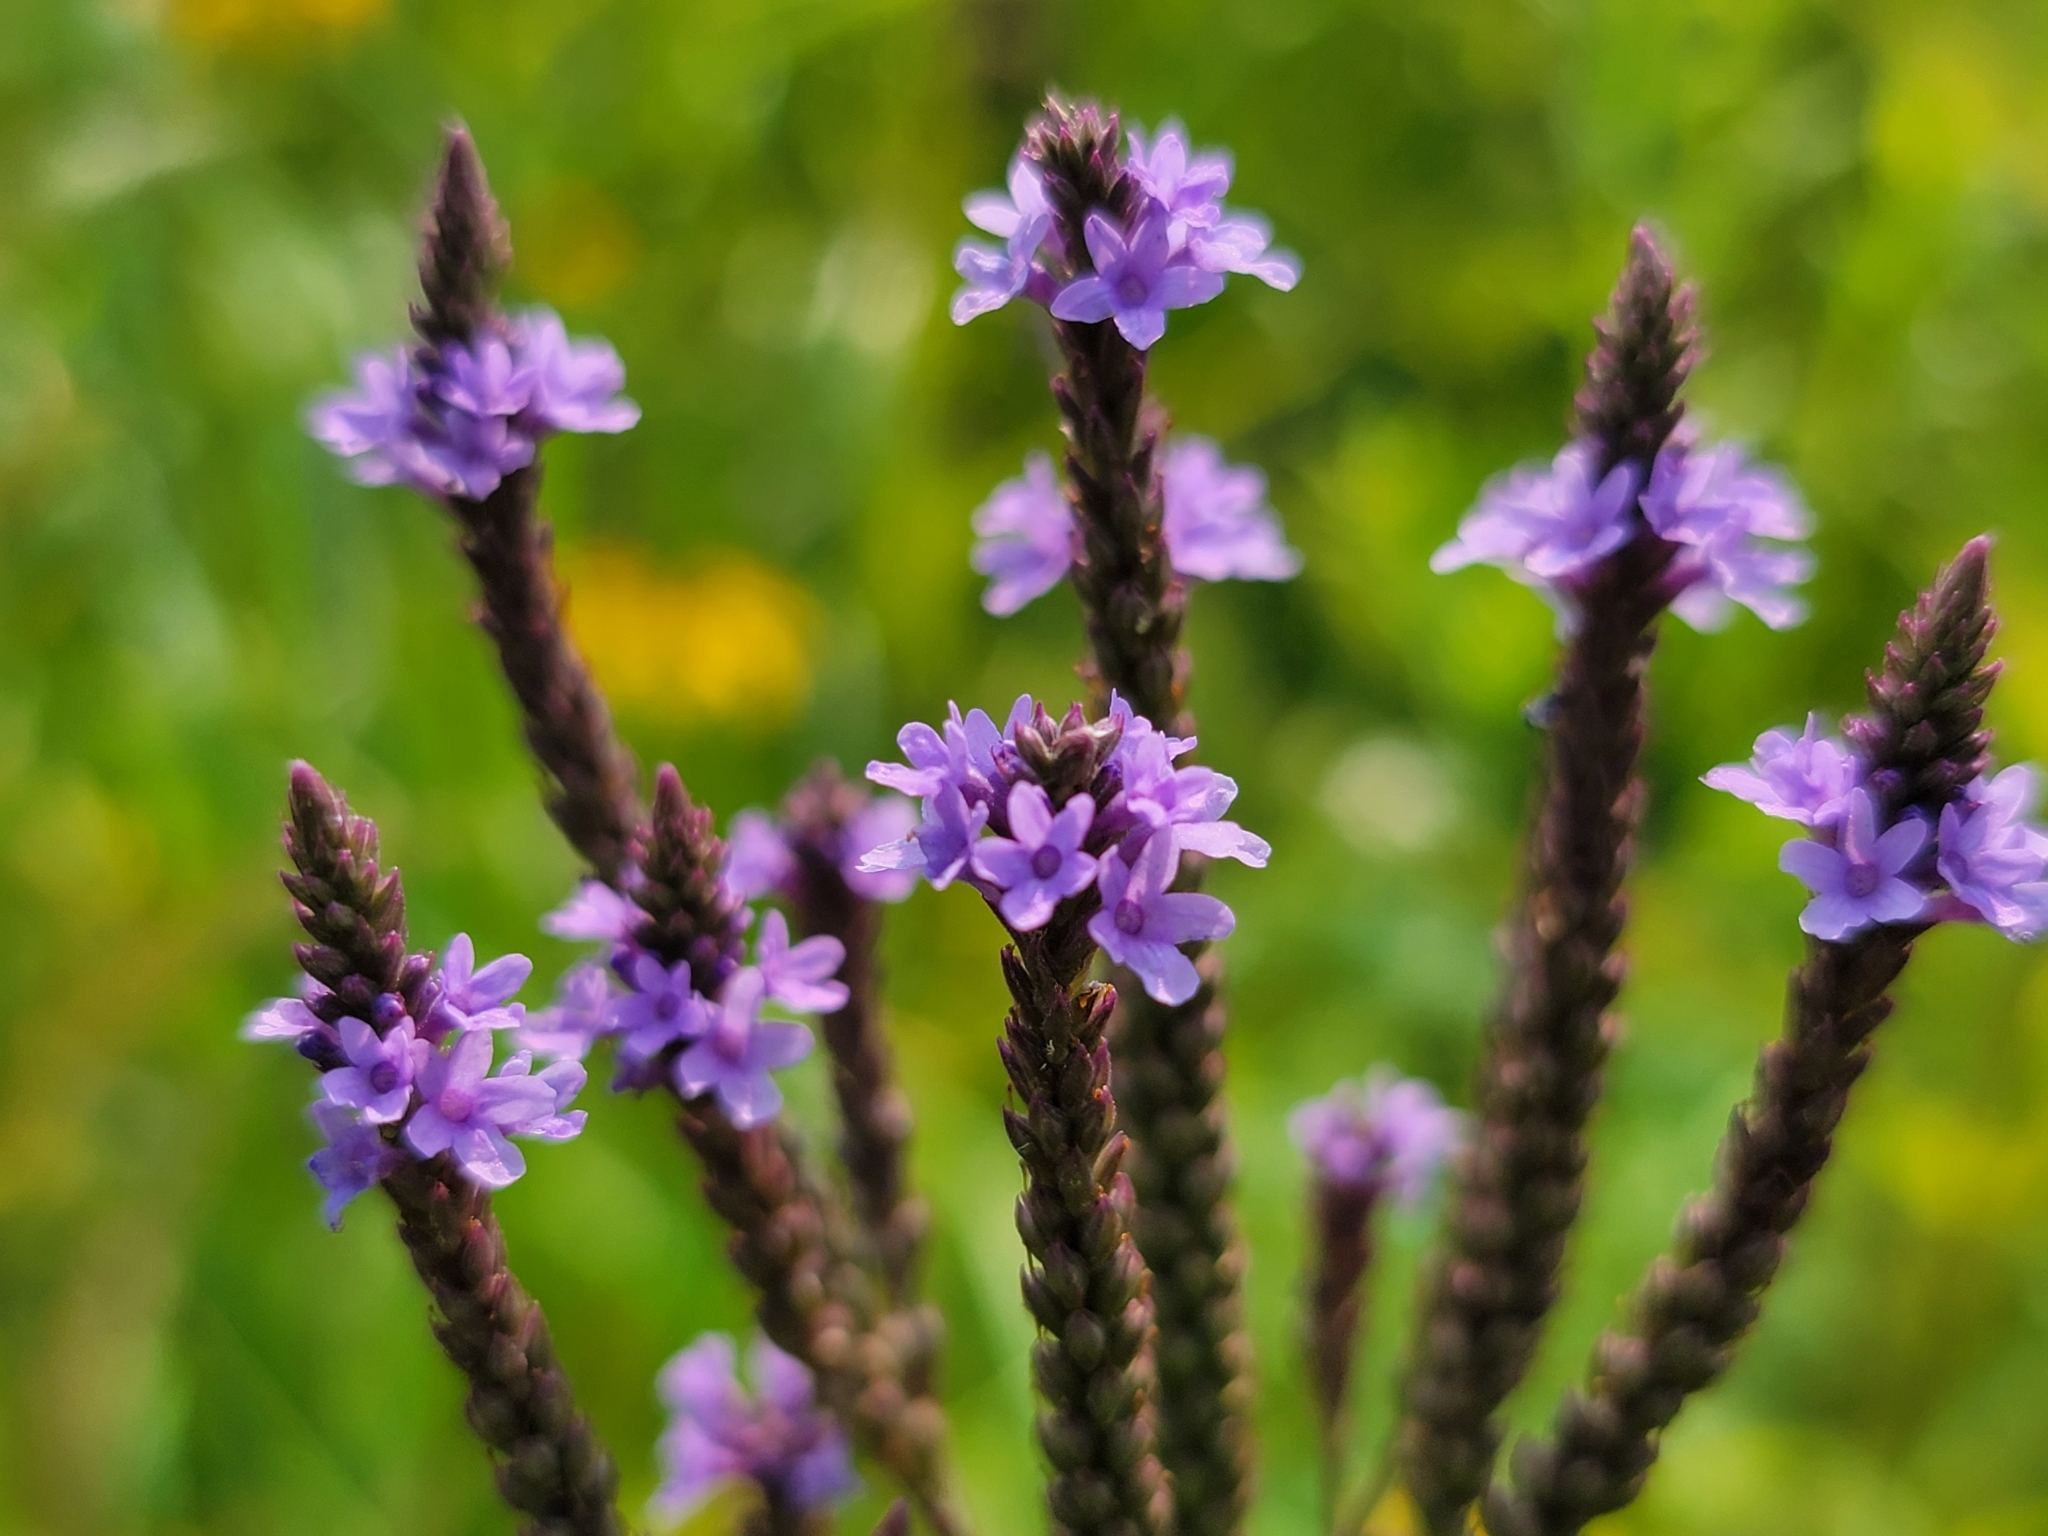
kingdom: Plantae
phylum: Tracheophyta
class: Magnoliopsida
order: Lamiales
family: Verbenaceae
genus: Verbena
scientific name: Verbena hastata
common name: American blue vervain
